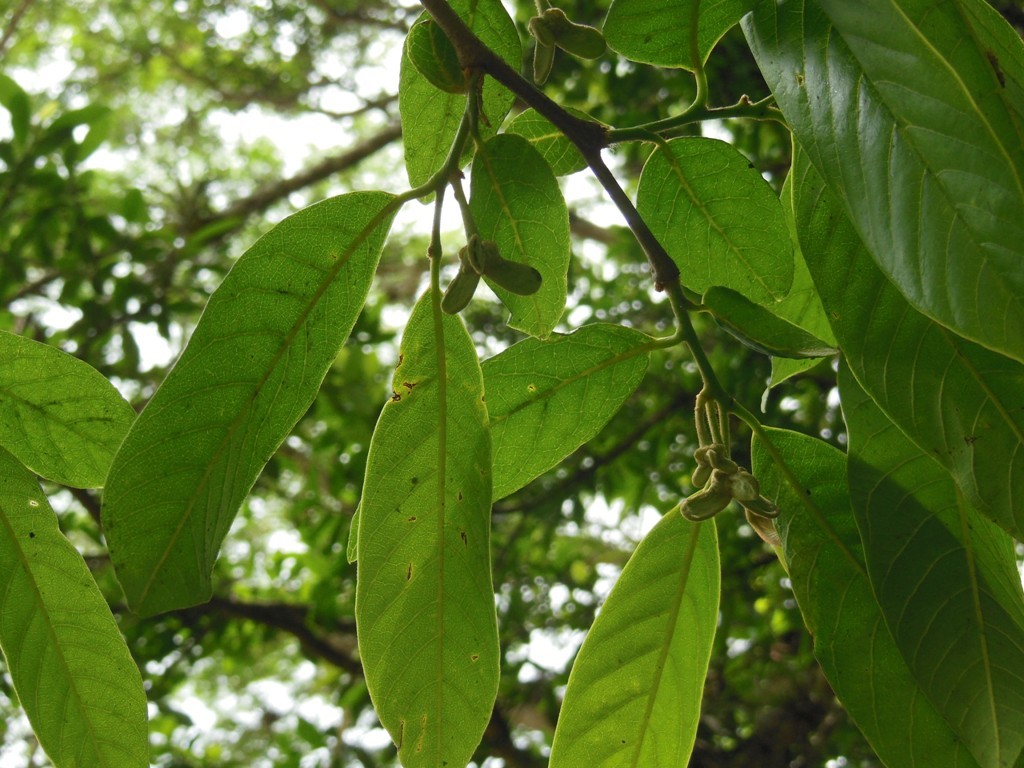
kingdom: Plantae
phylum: Tracheophyta
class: Magnoliopsida
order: Magnoliales
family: Annonaceae
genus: Annona
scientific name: Annona squamosa
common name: Custard-apple
